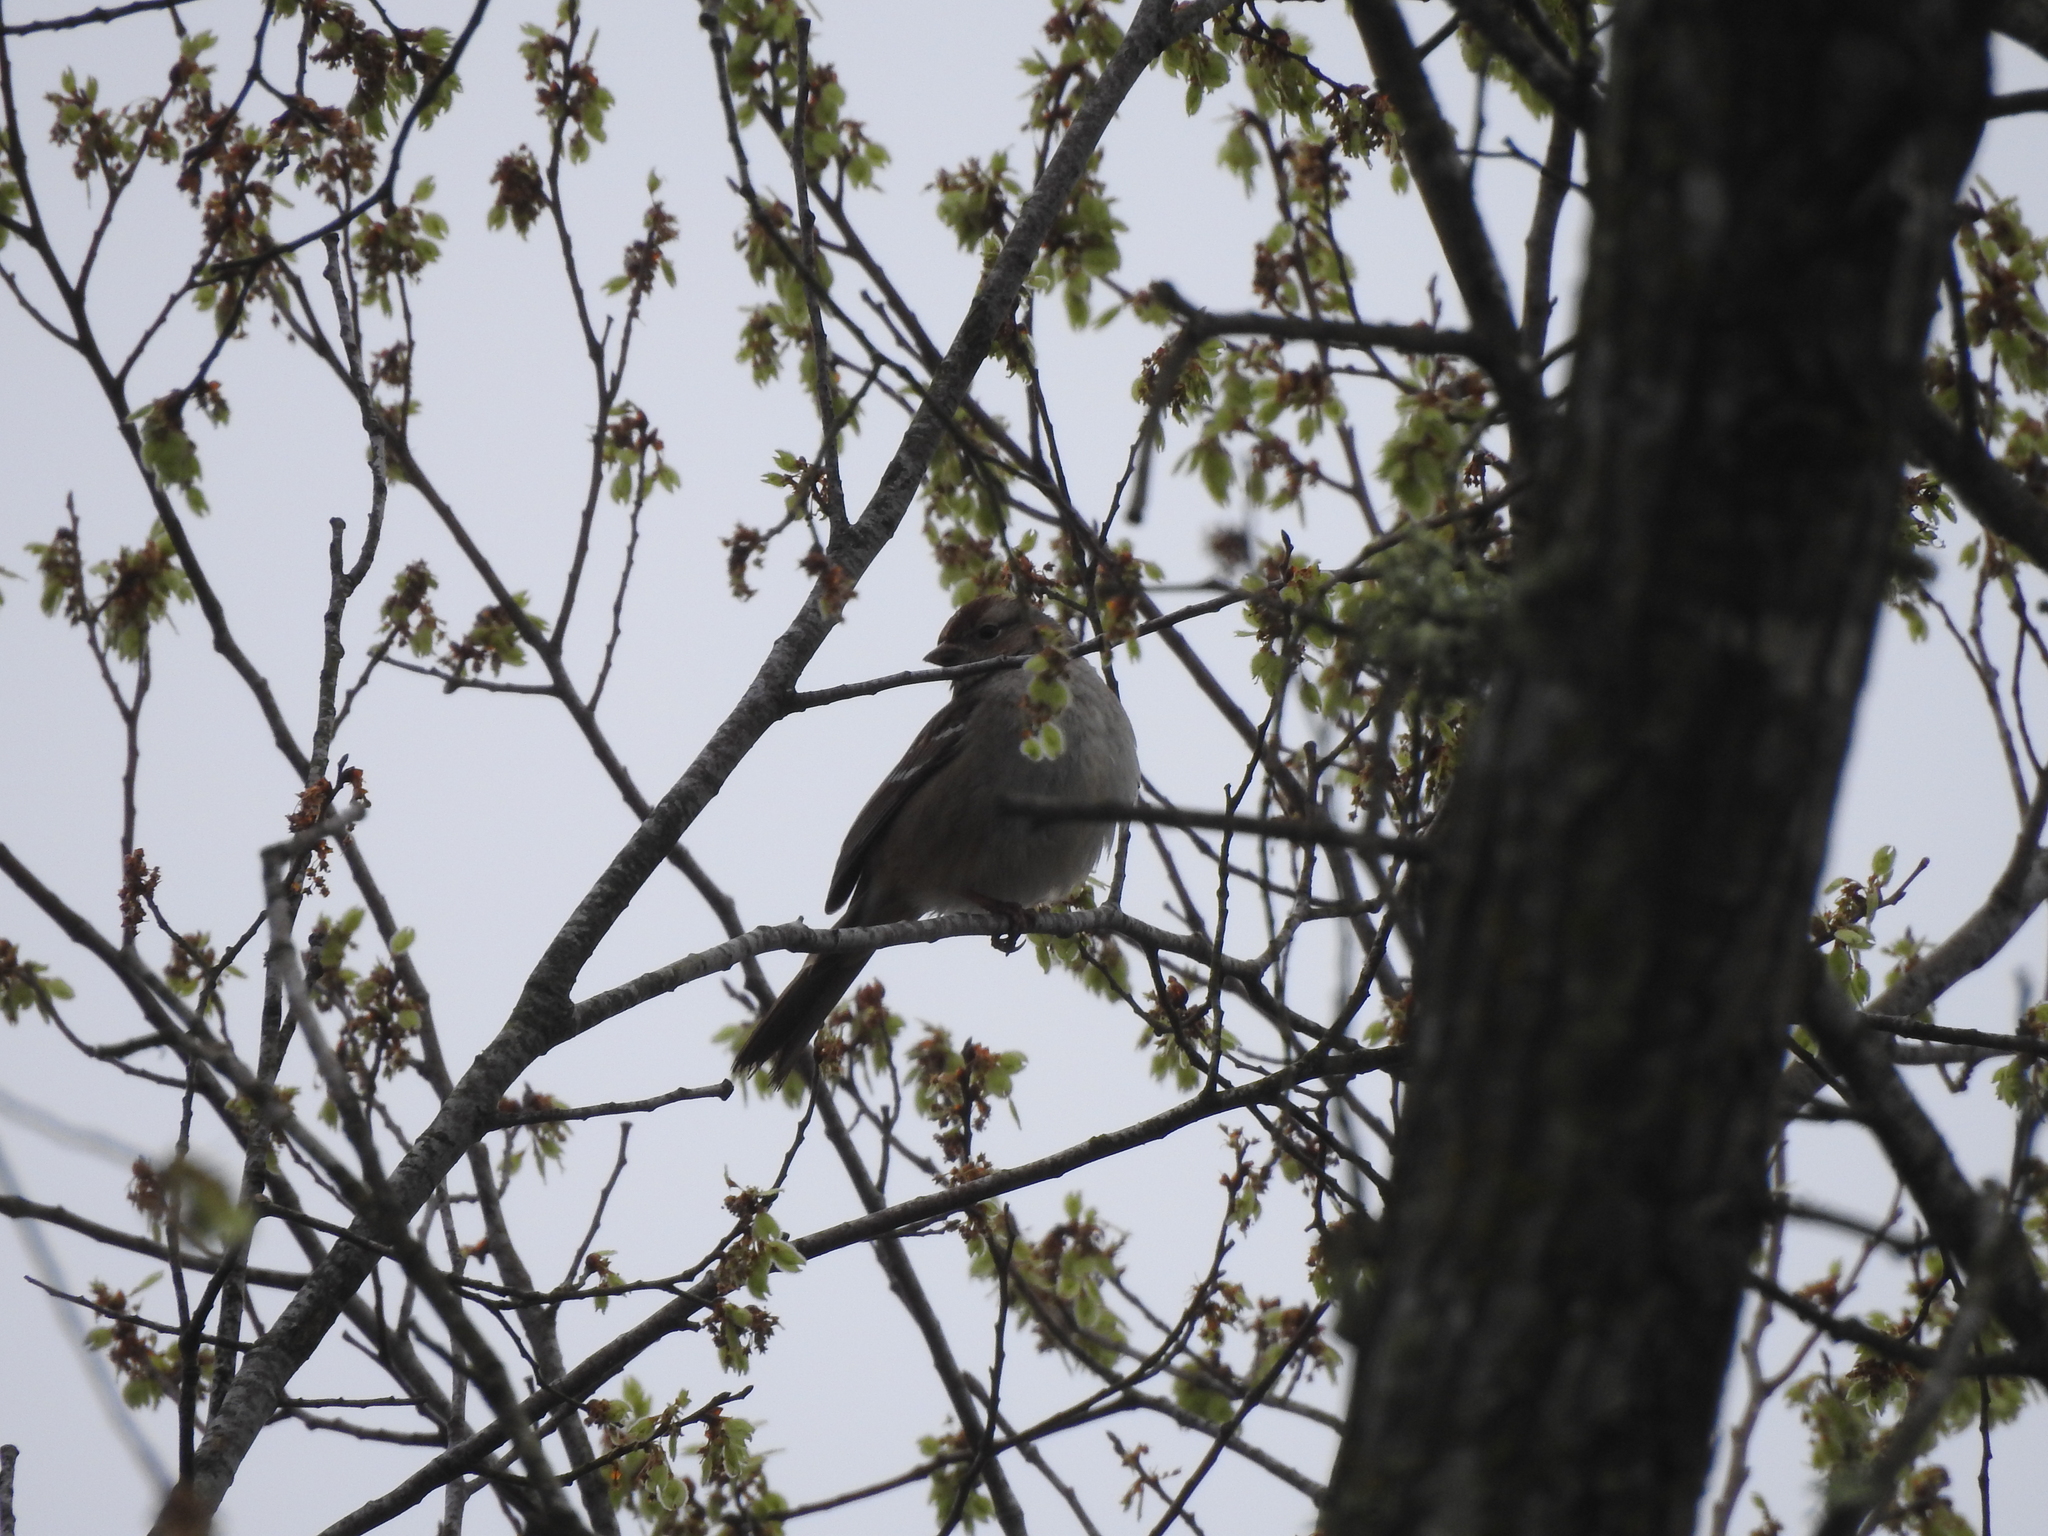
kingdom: Animalia
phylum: Chordata
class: Aves
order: Passeriformes
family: Passerellidae
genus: Zonotrichia
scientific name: Zonotrichia leucophrys
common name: White-crowned sparrow
